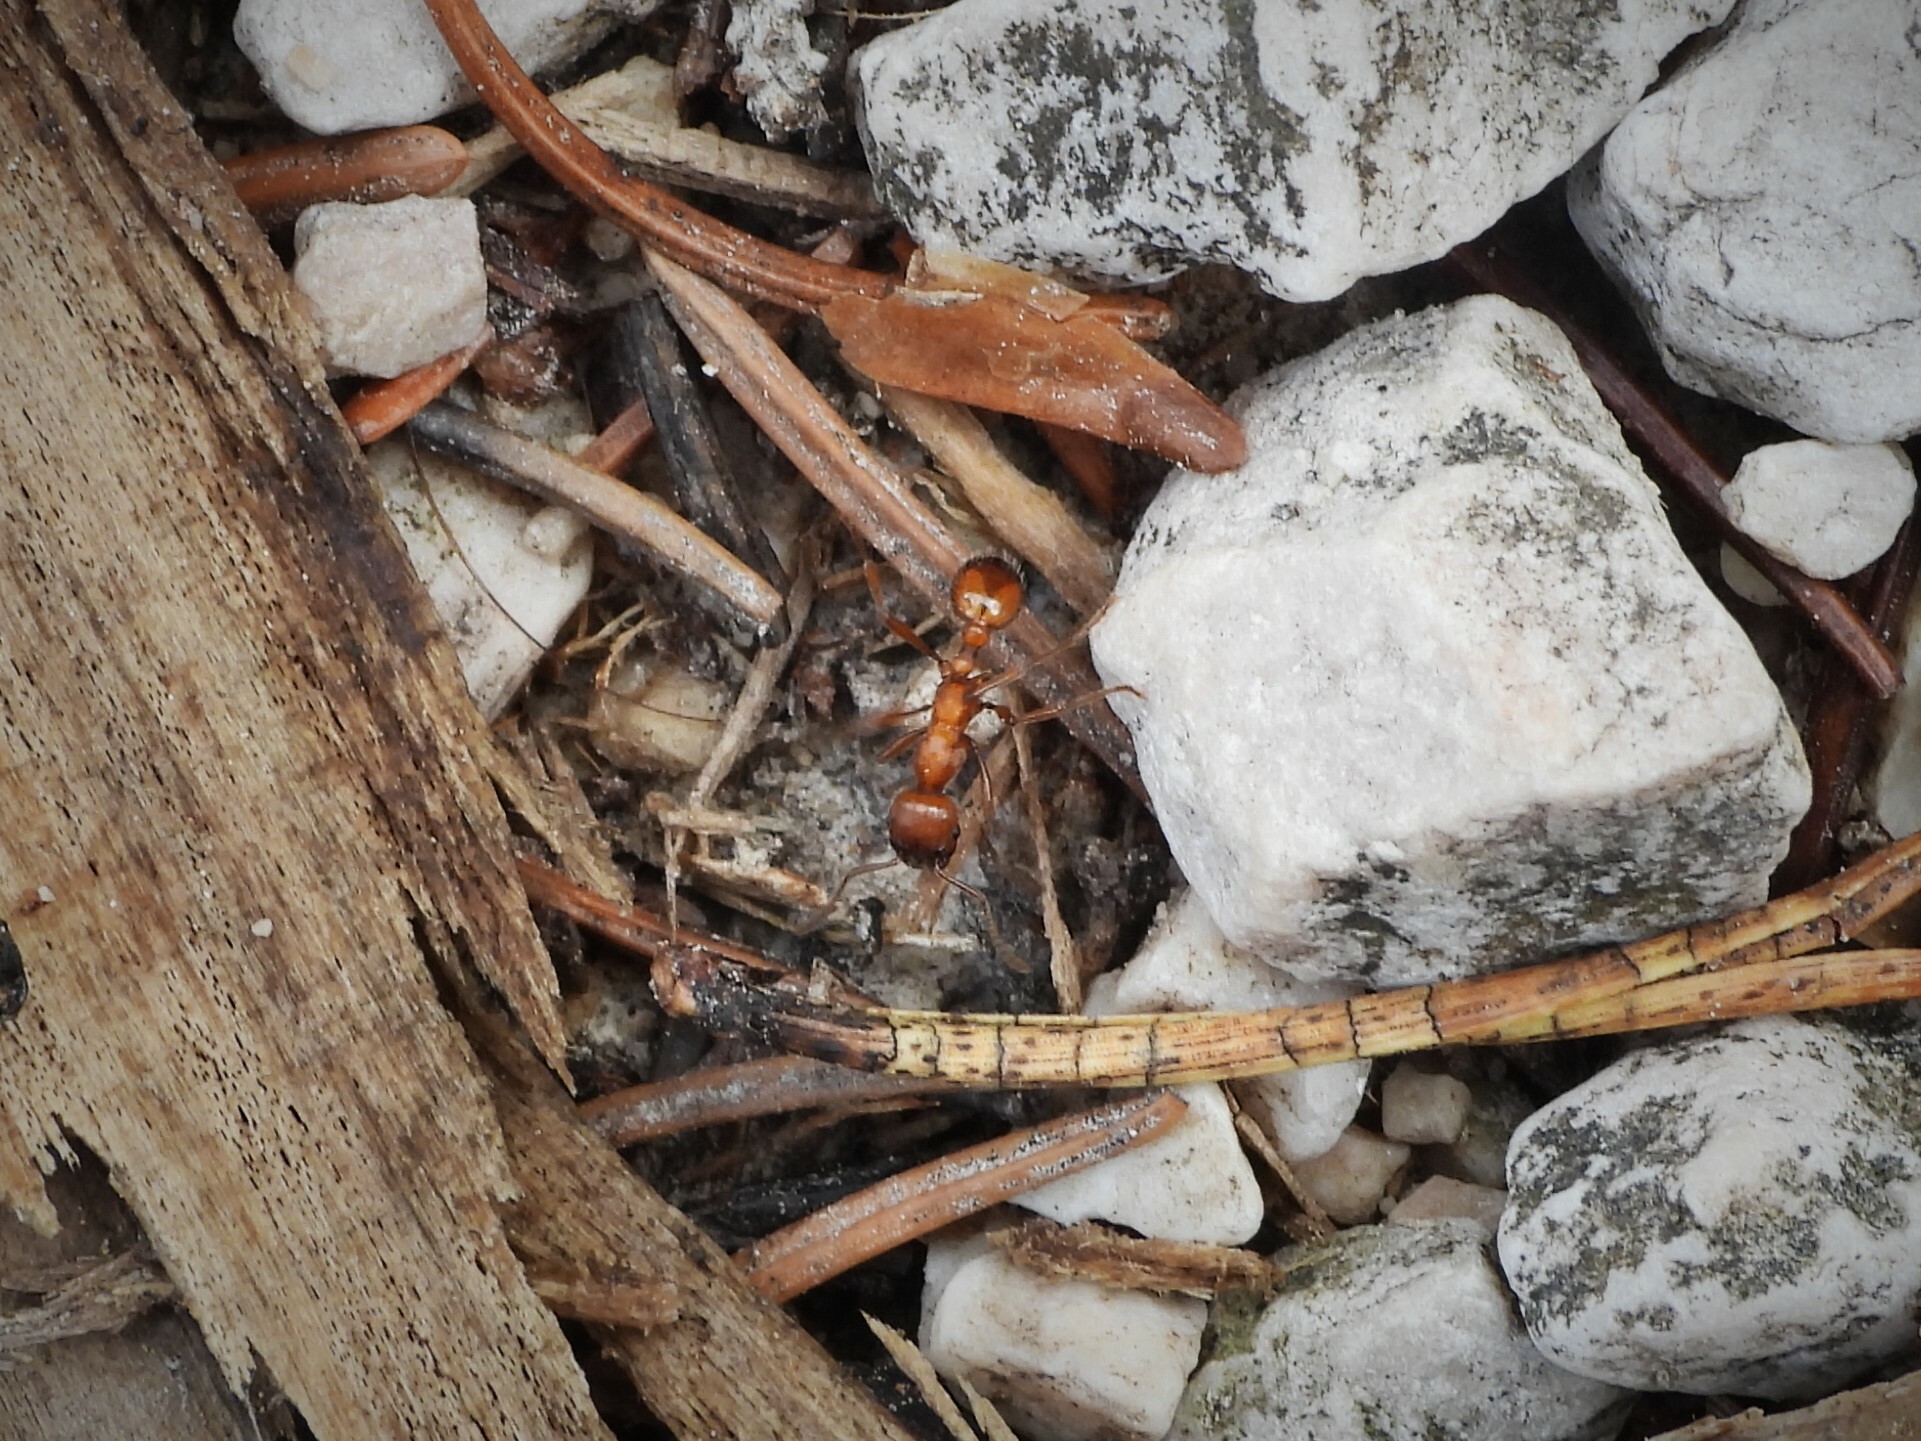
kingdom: Animalia
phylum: Arthropoda
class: Insecta
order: Hymenoptera
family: Formicidae
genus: Manica
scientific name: Manica rubida
